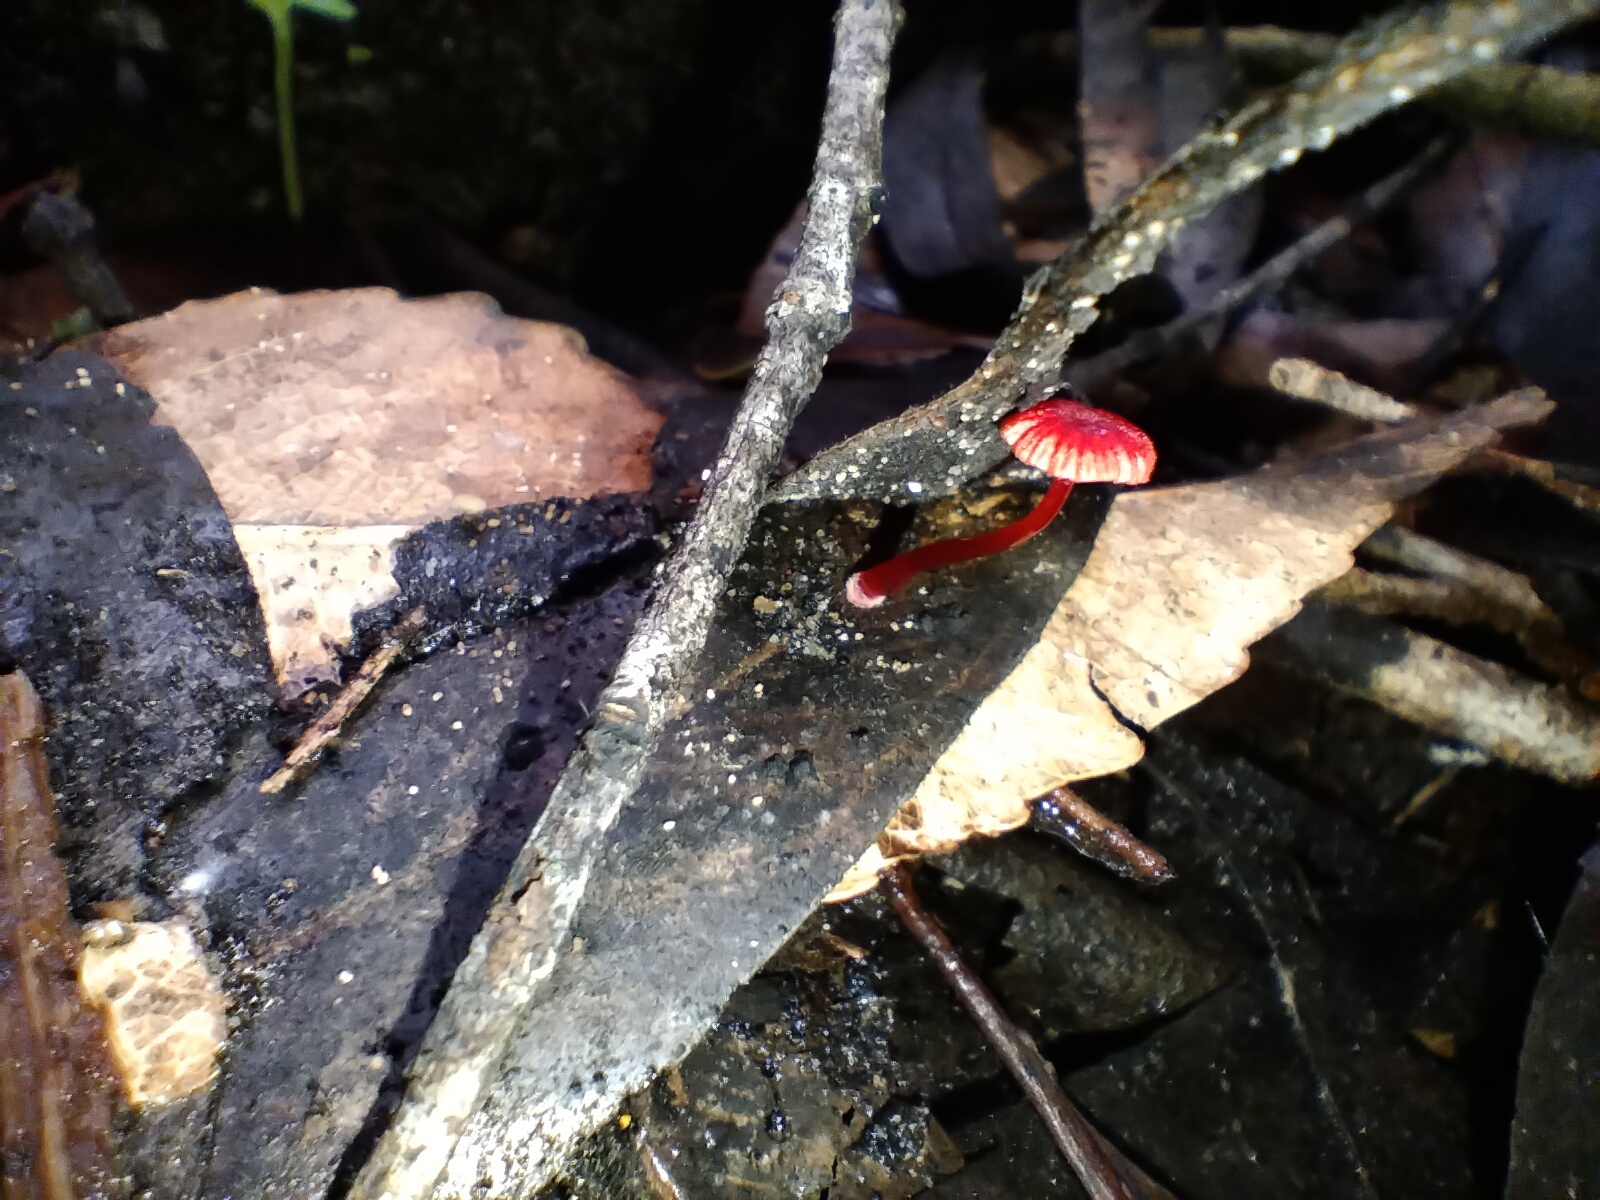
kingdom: Fungi
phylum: Basidiomycota
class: Agaricomycetes
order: Agaricales
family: Mycenaceae
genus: Cruentomycena
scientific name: Cruentomycena viscidocruenta
